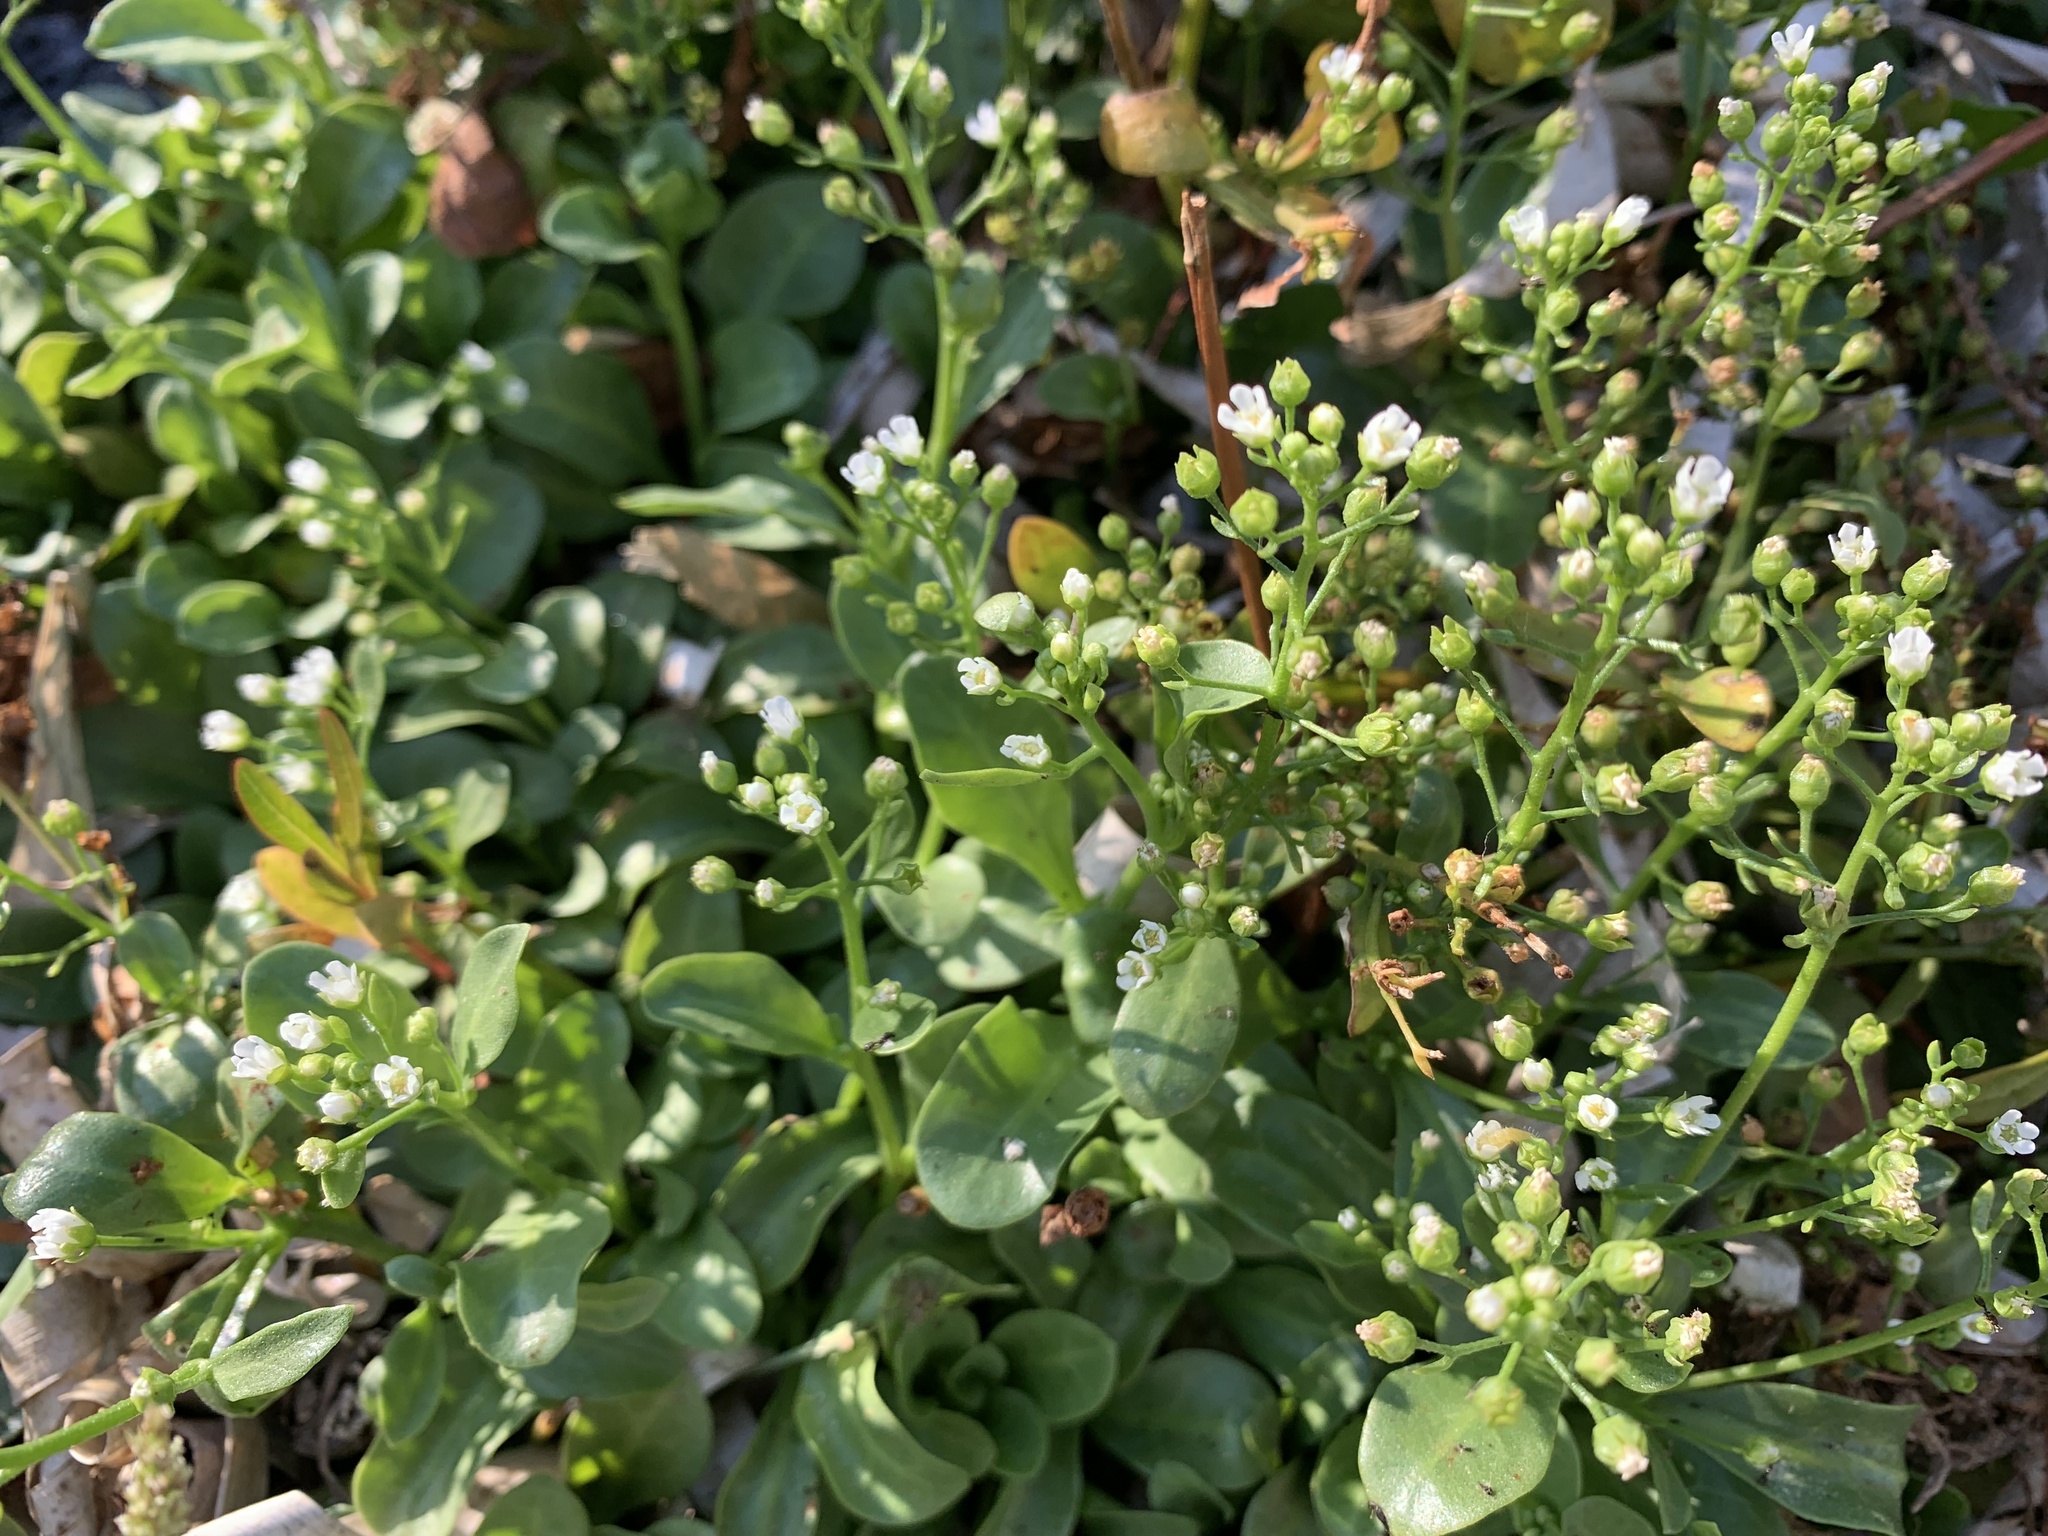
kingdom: Plantae
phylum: Tracheophyta
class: Magnoliopsida
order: Ericales
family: Primulaceae
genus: Samolus
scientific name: Samolus valerandi
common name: Brookweed
